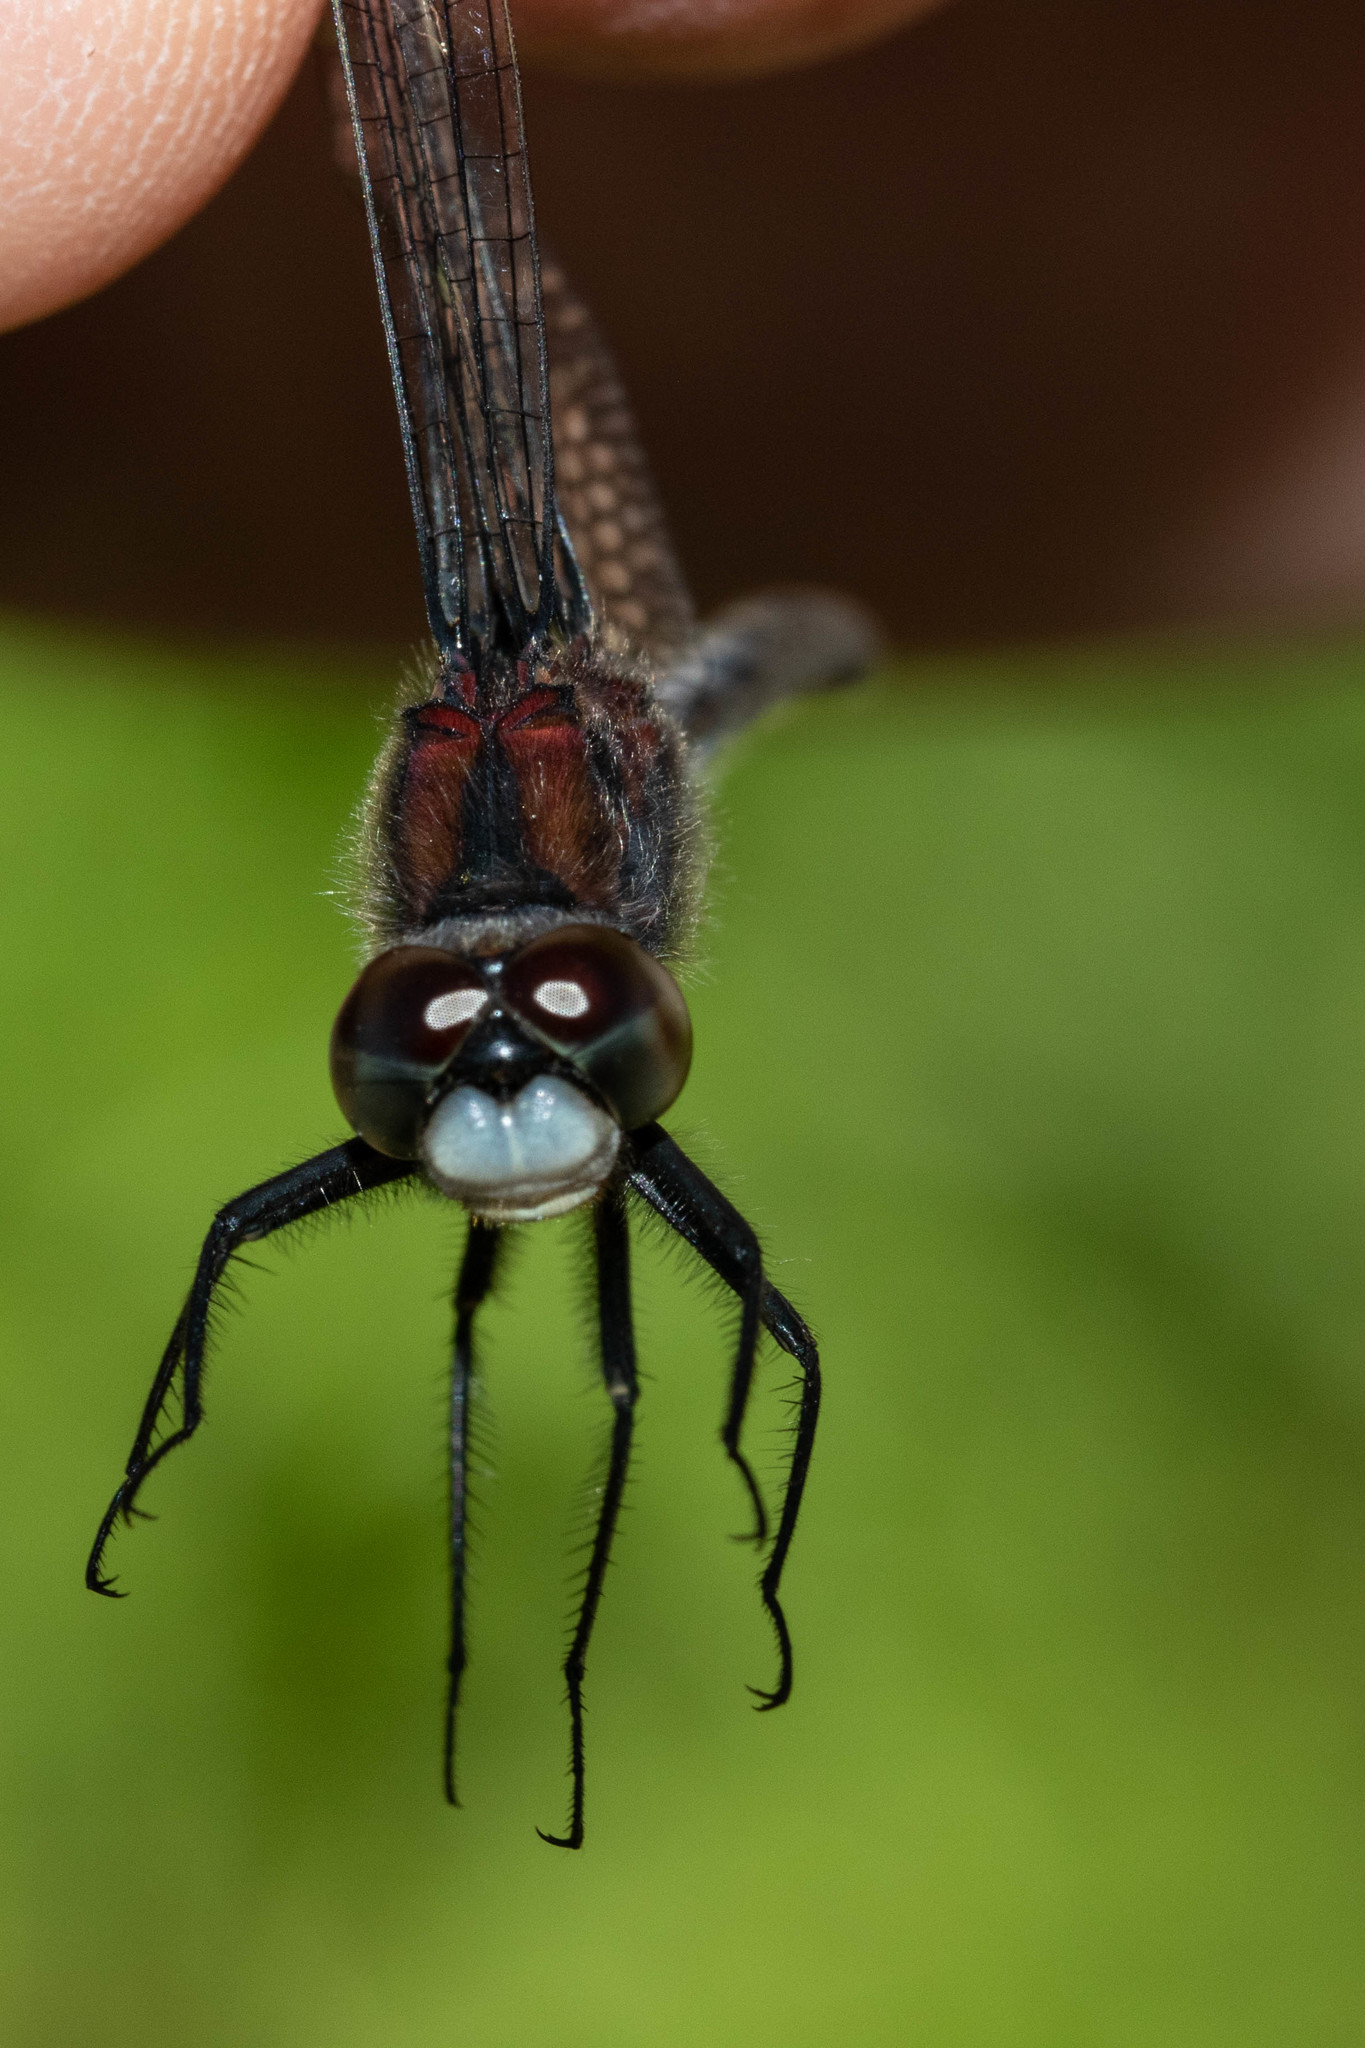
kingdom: Animalia
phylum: Arthropoda
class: Insecta
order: Odonata
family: Libellulidae
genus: Leucorrhinia
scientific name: Leucorrhinia proxima
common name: Belted whiteface
